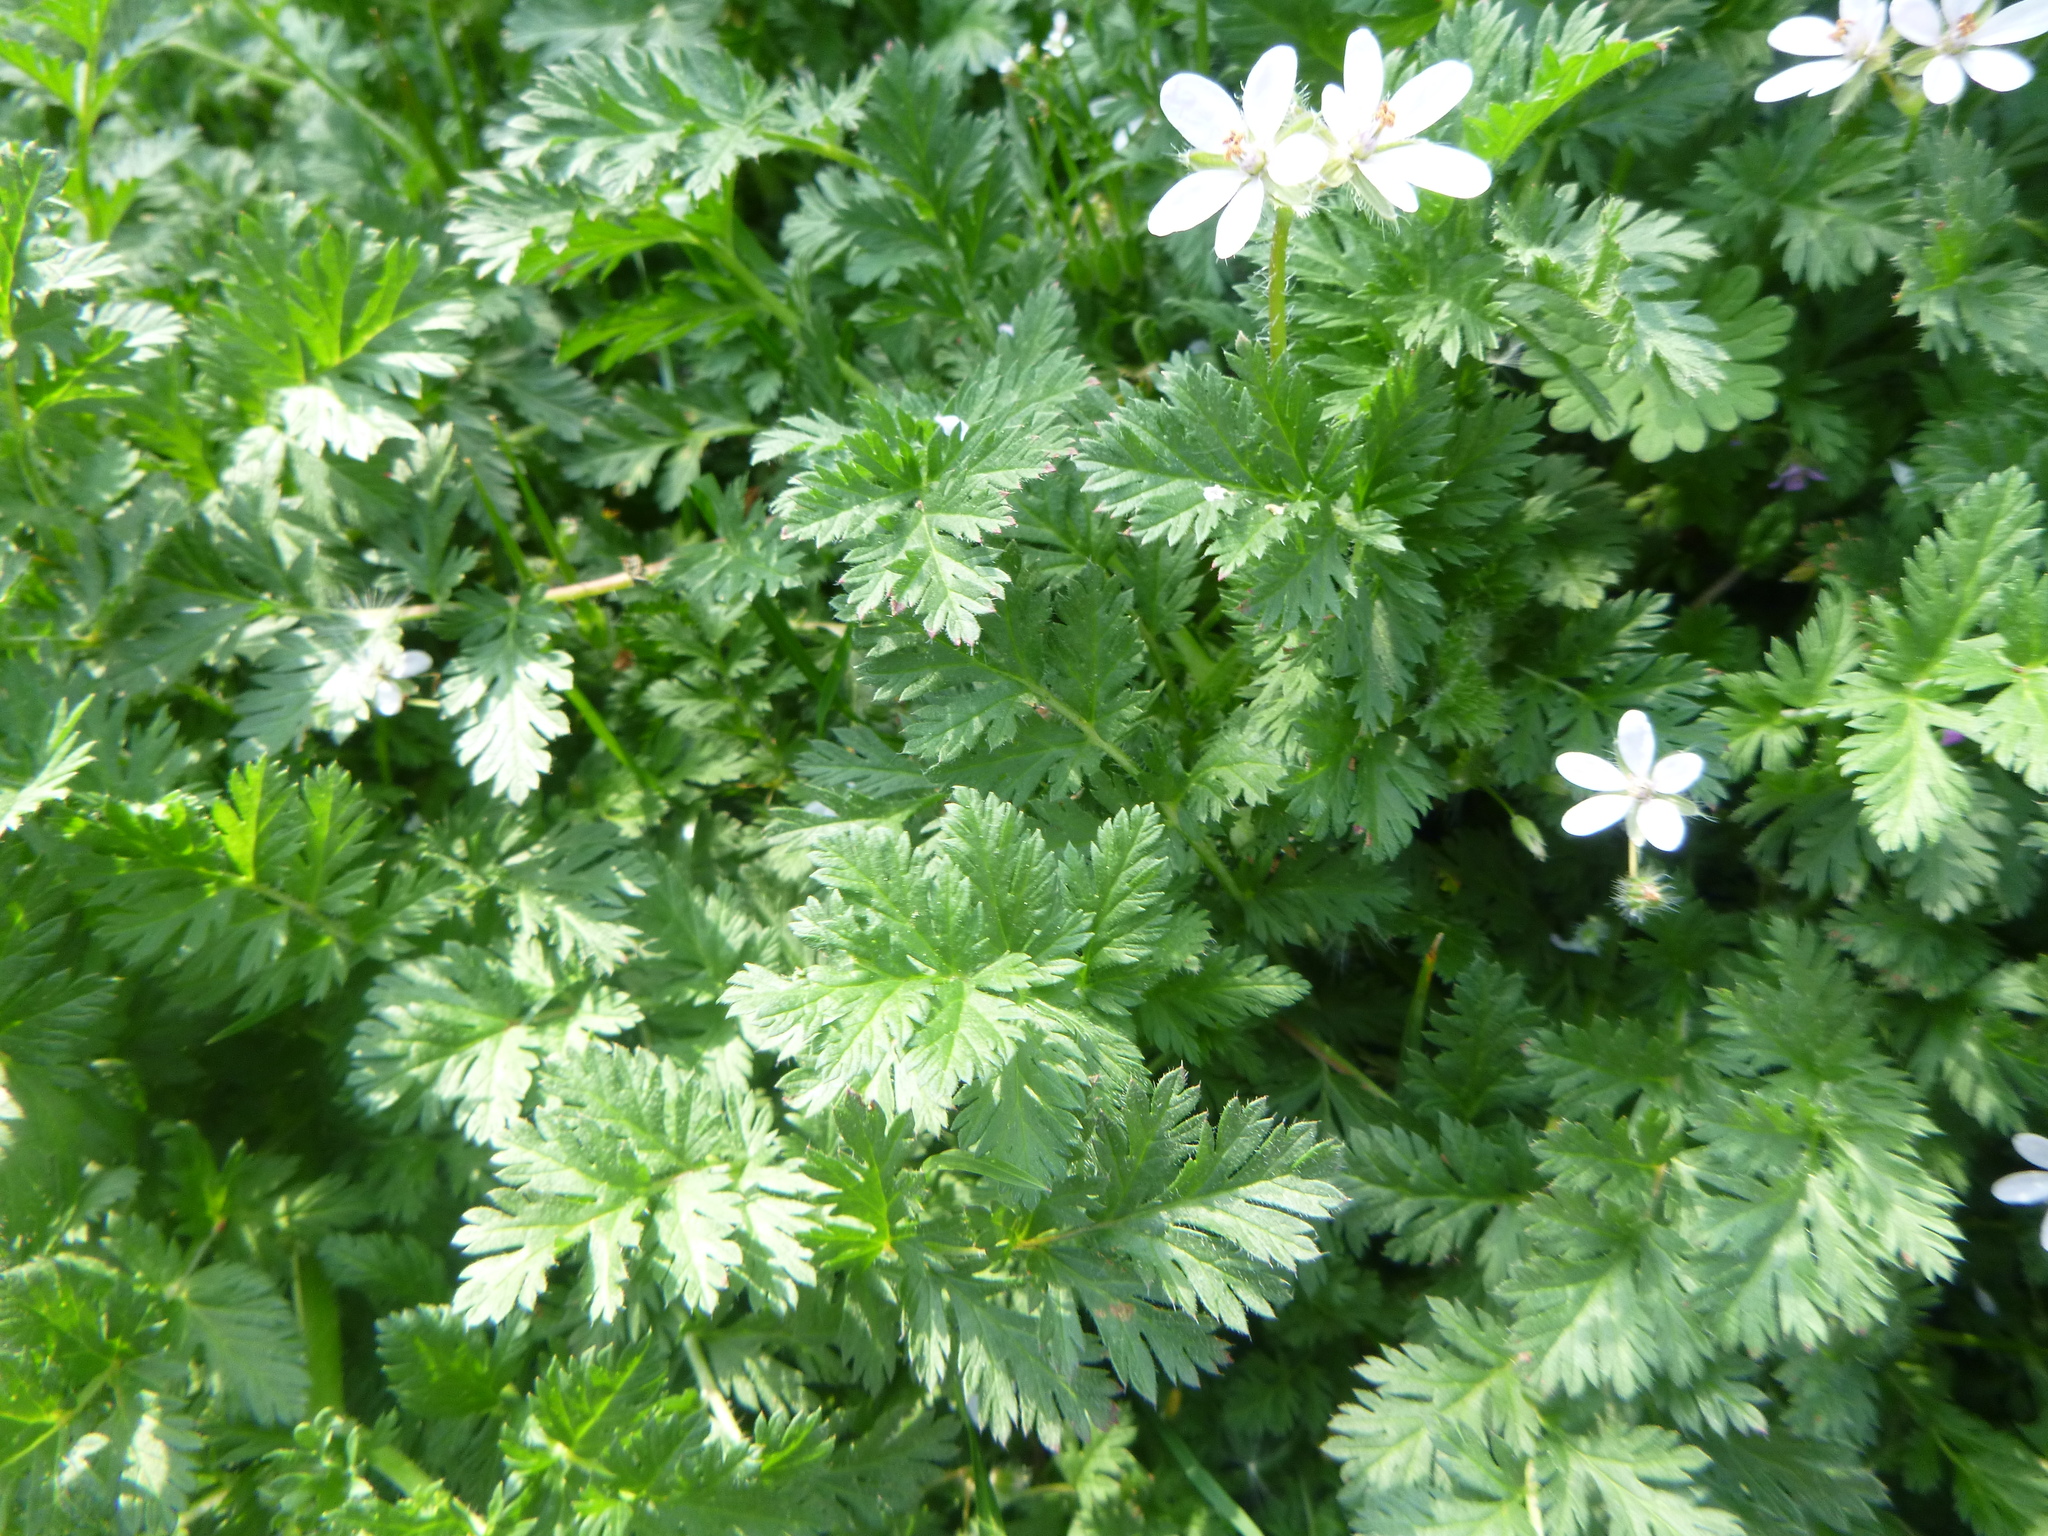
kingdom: Plantae
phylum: Tracheophyta
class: Magnoliopsida
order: Geraniales
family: Geraniaceae
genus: Erodium
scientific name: Erodium cicutarium
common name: Common stork's-bill
